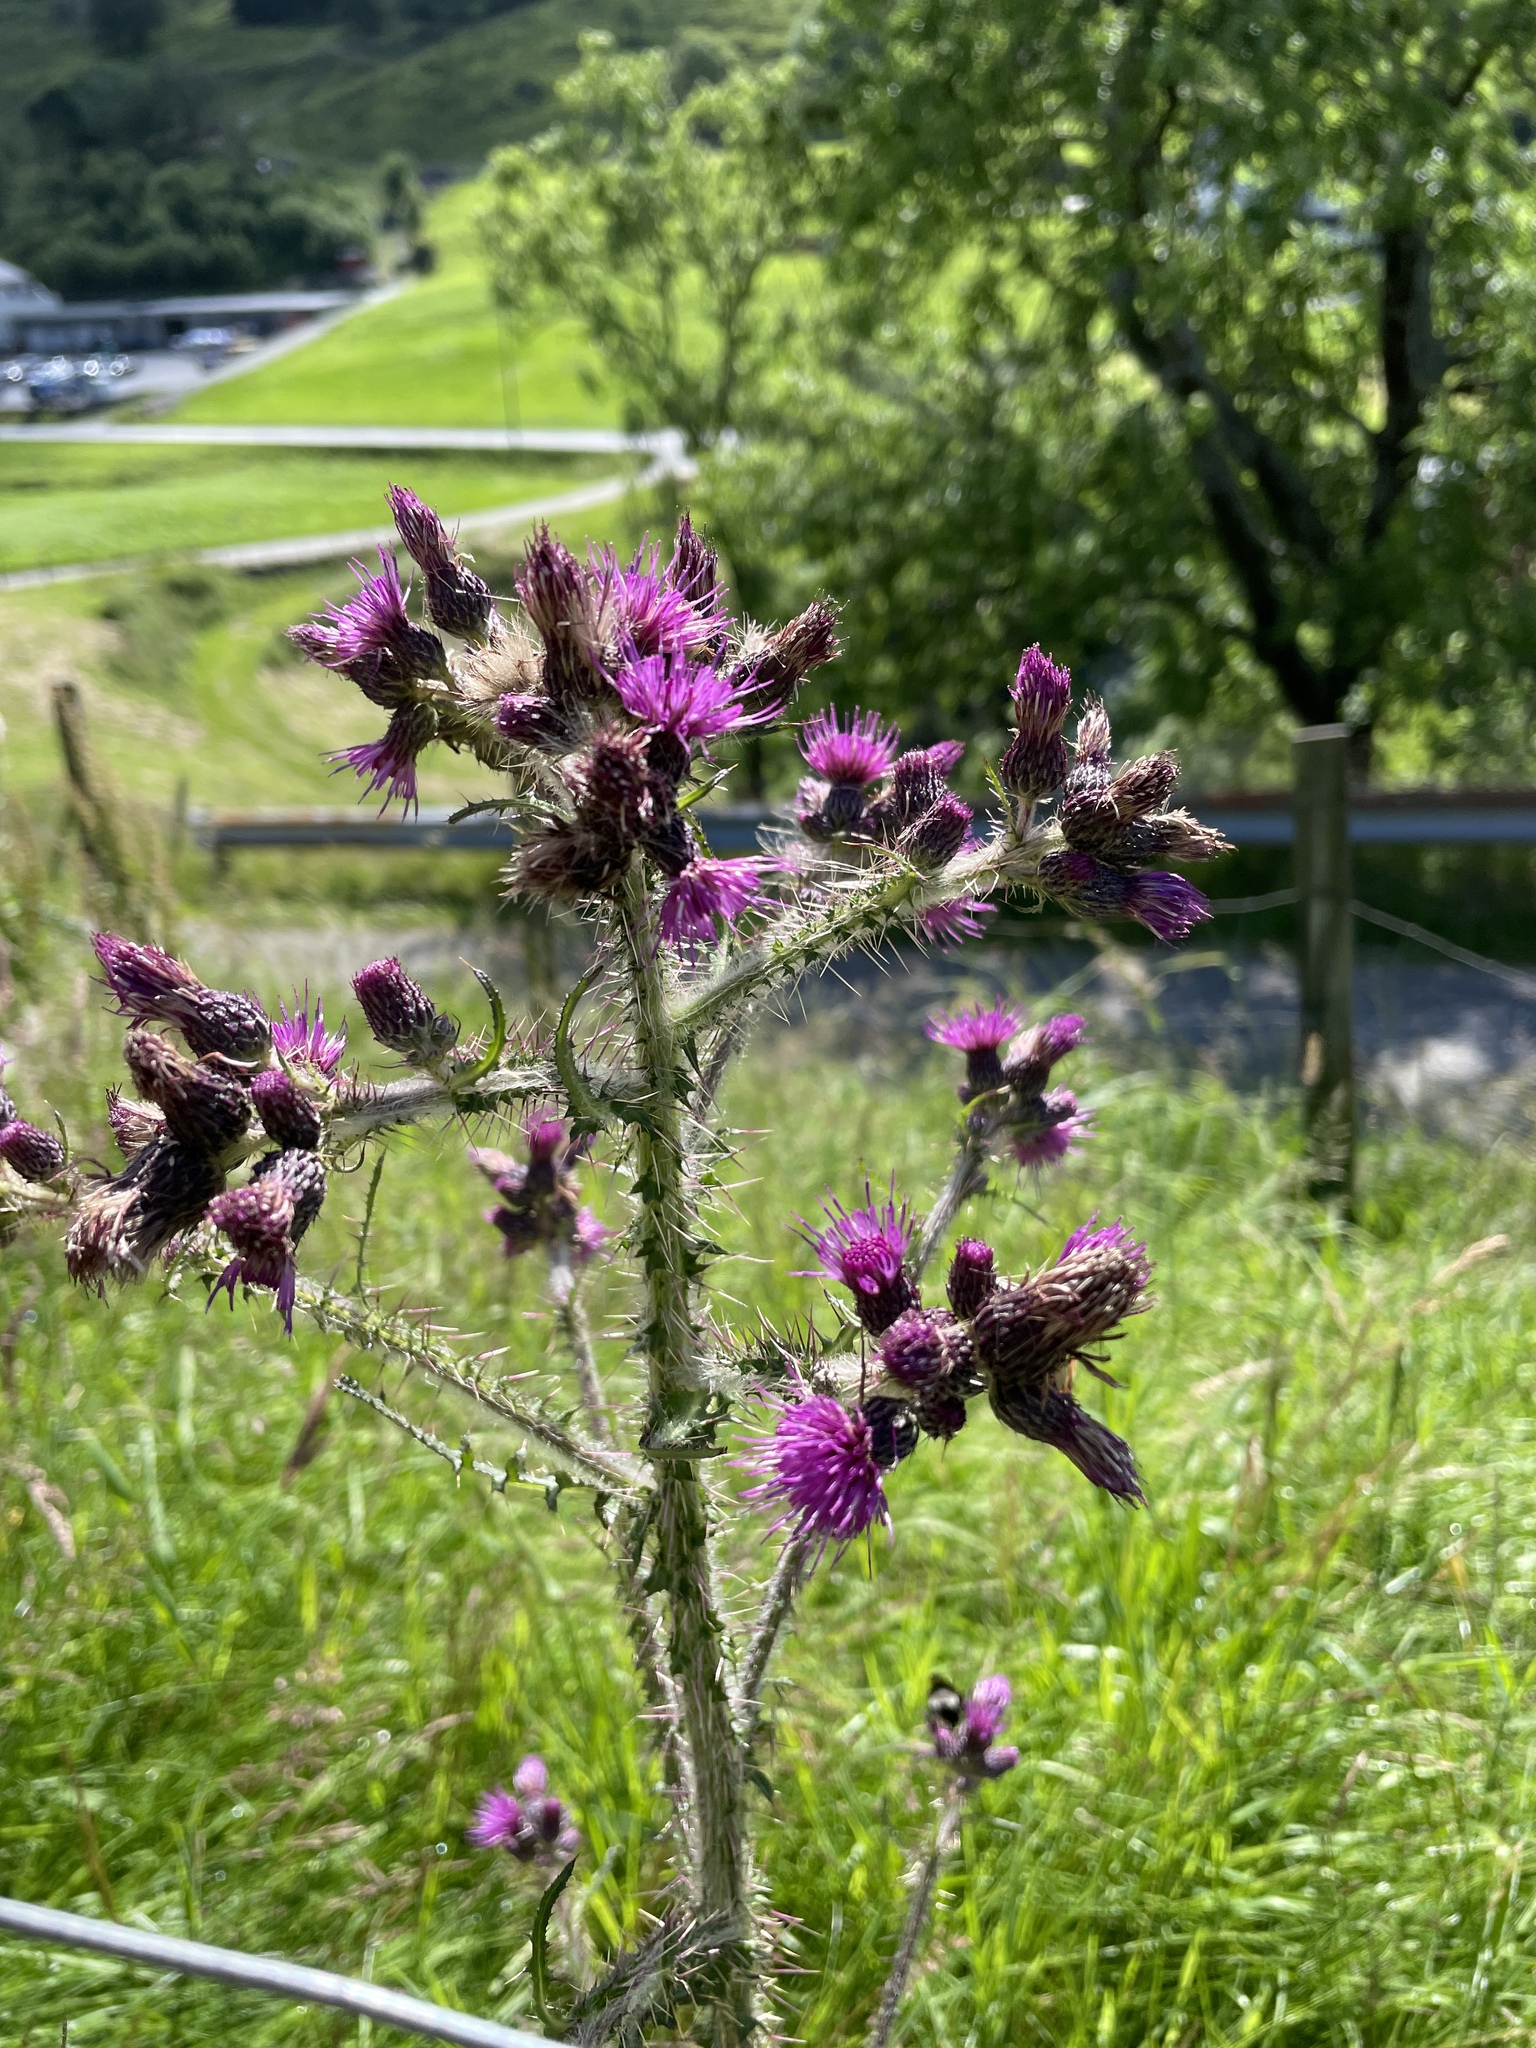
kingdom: Plantae
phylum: Tracheophyta
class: Magnoliopsida
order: Asterales
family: Asteraceae
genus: Cirsium
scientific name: Cirsium palustre
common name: Marsh thistle
